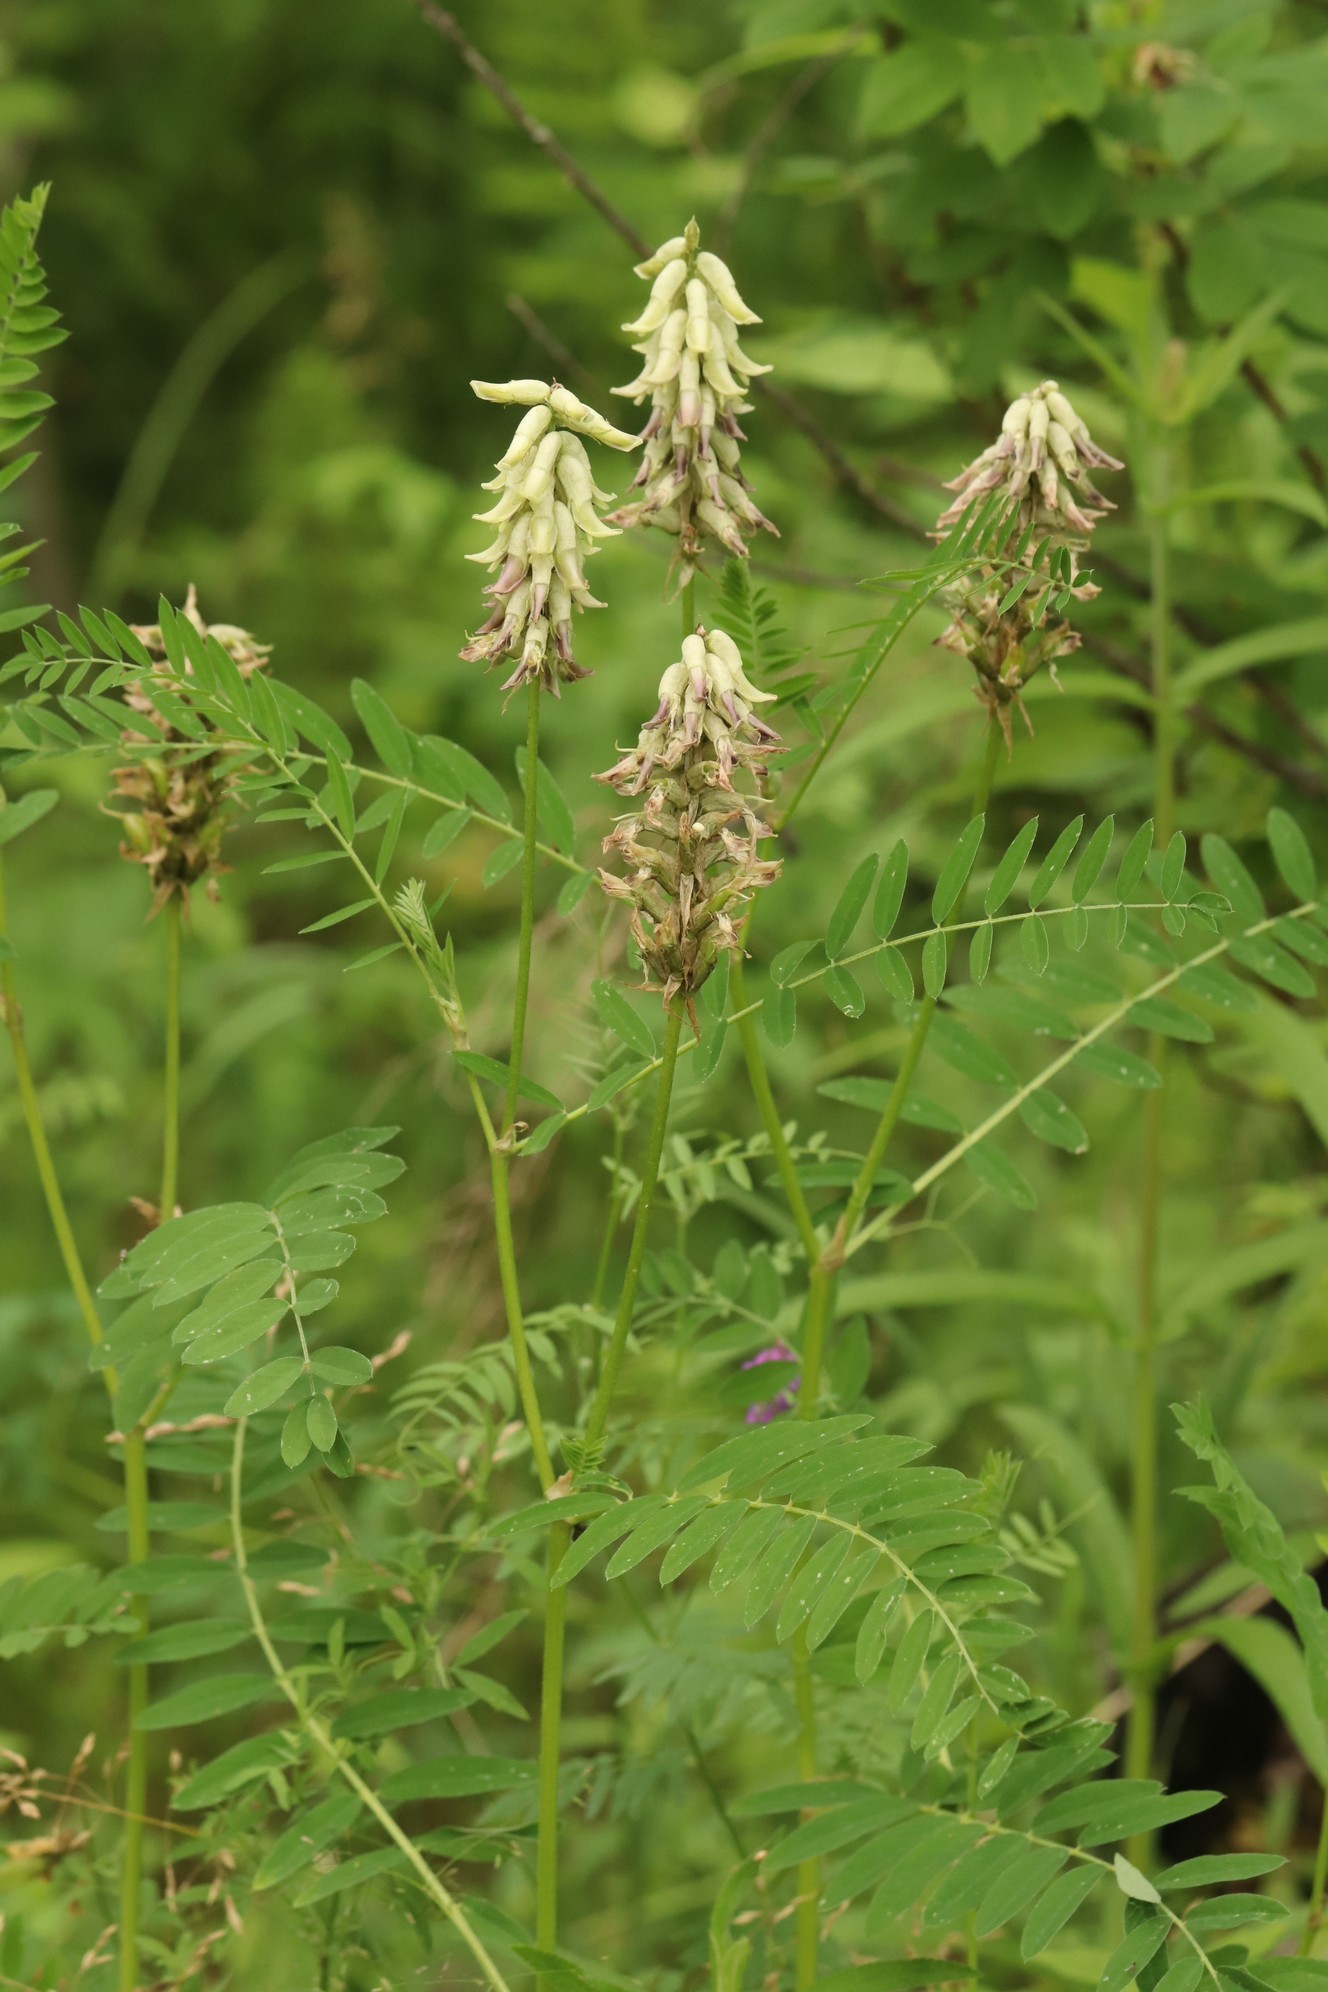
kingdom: Plantae
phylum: Tracheophyta
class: Magnoliopsida
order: Fabales
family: Fabaceae
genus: Astragalus
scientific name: Astragalus uliginosus
